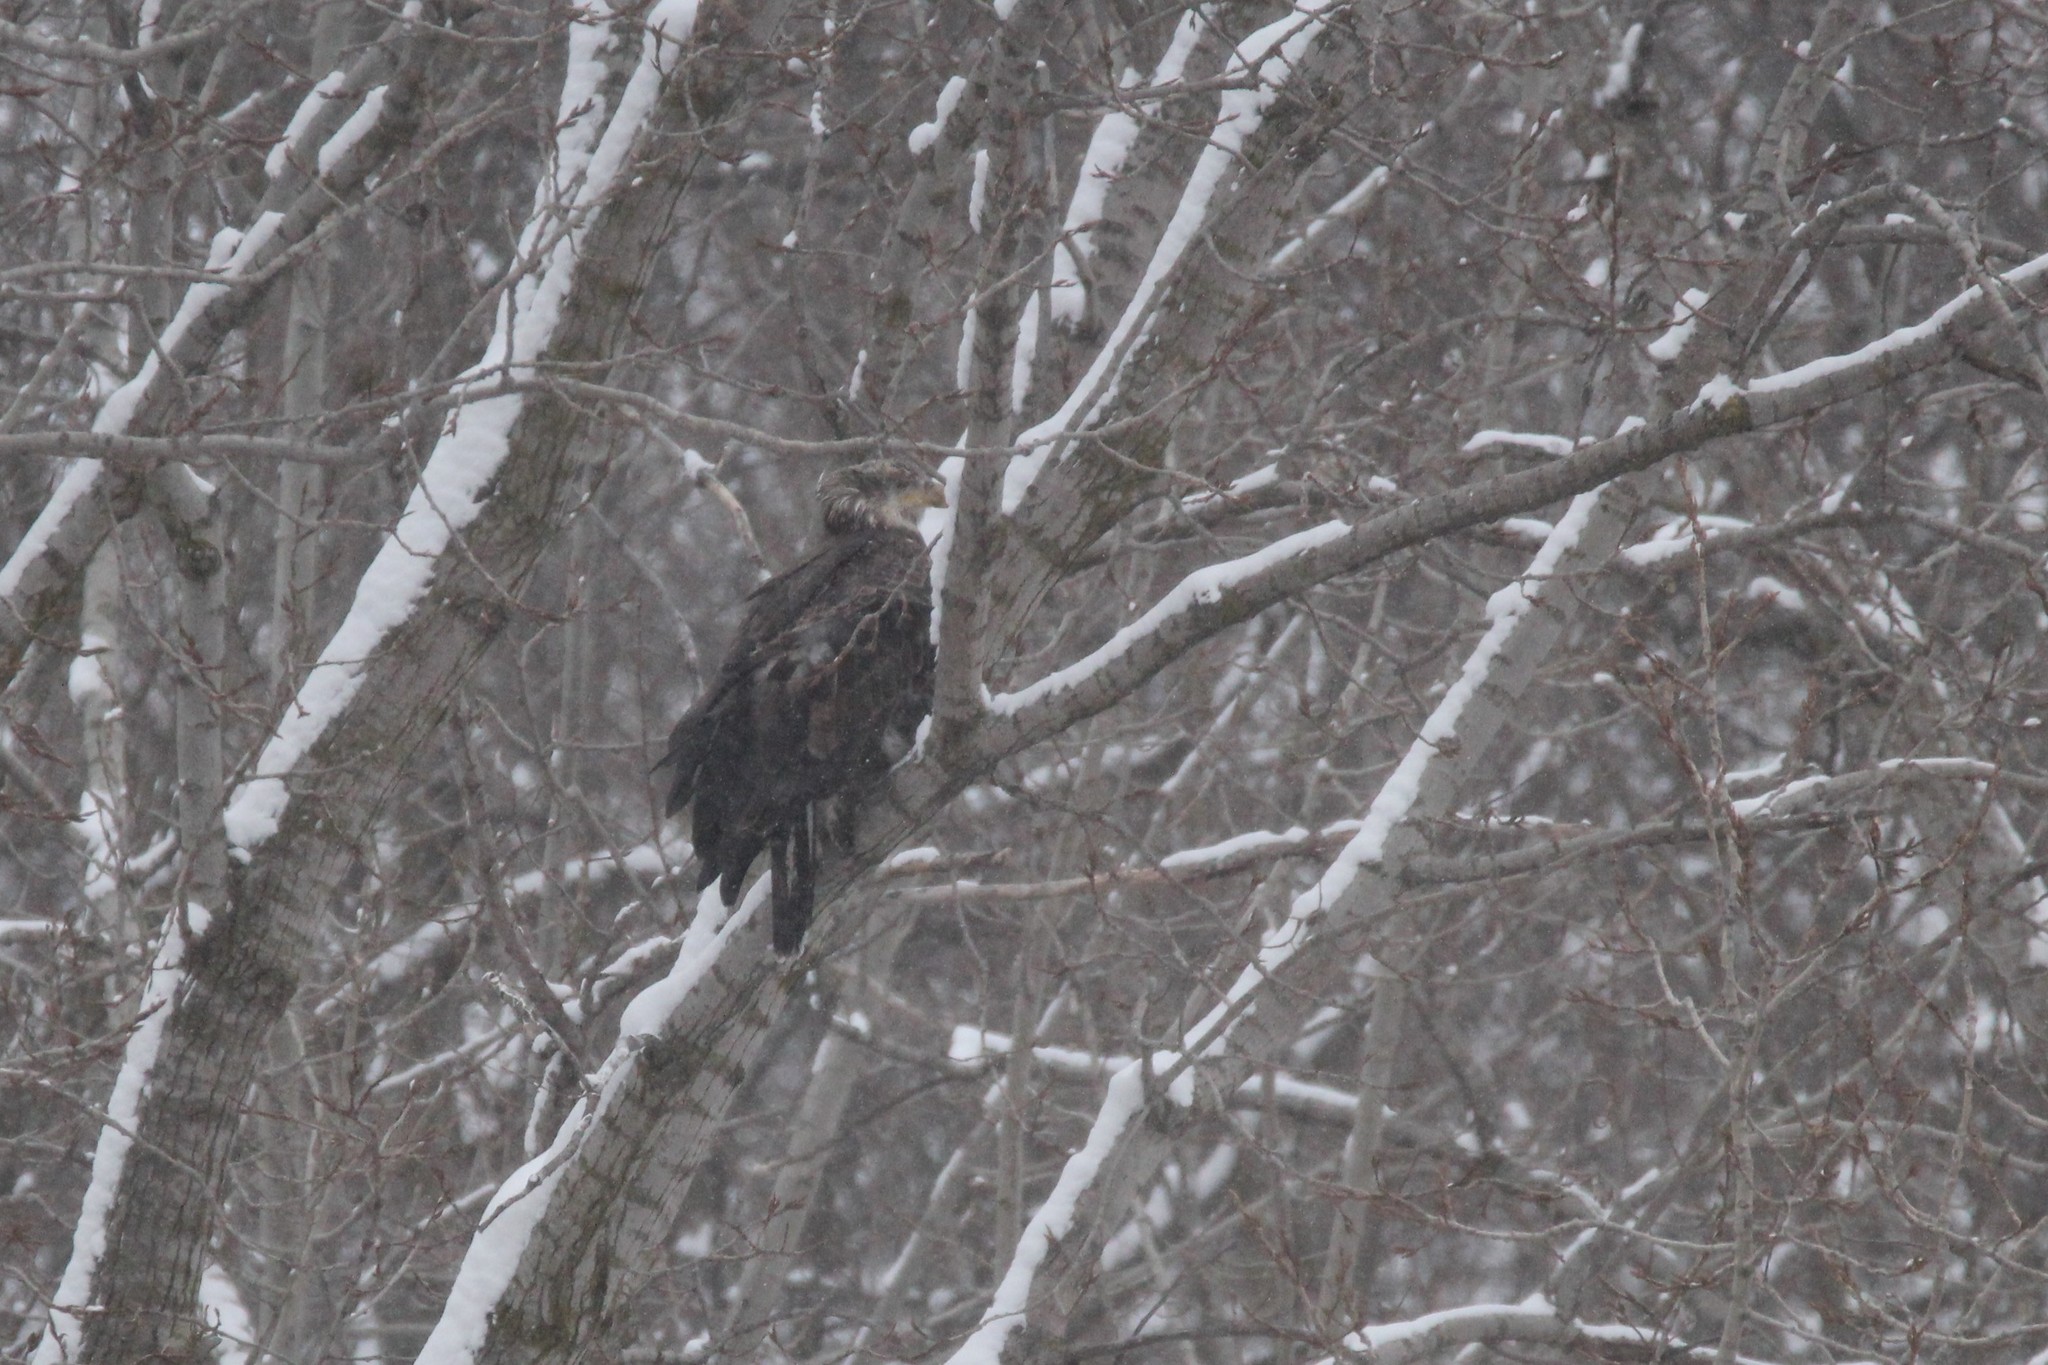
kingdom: Animalia
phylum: Chordata
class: Aves
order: Accipitriformes
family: Accipitridae
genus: Haliaeetus
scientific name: Haliaeetus leucocephalus
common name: Bald eagle
